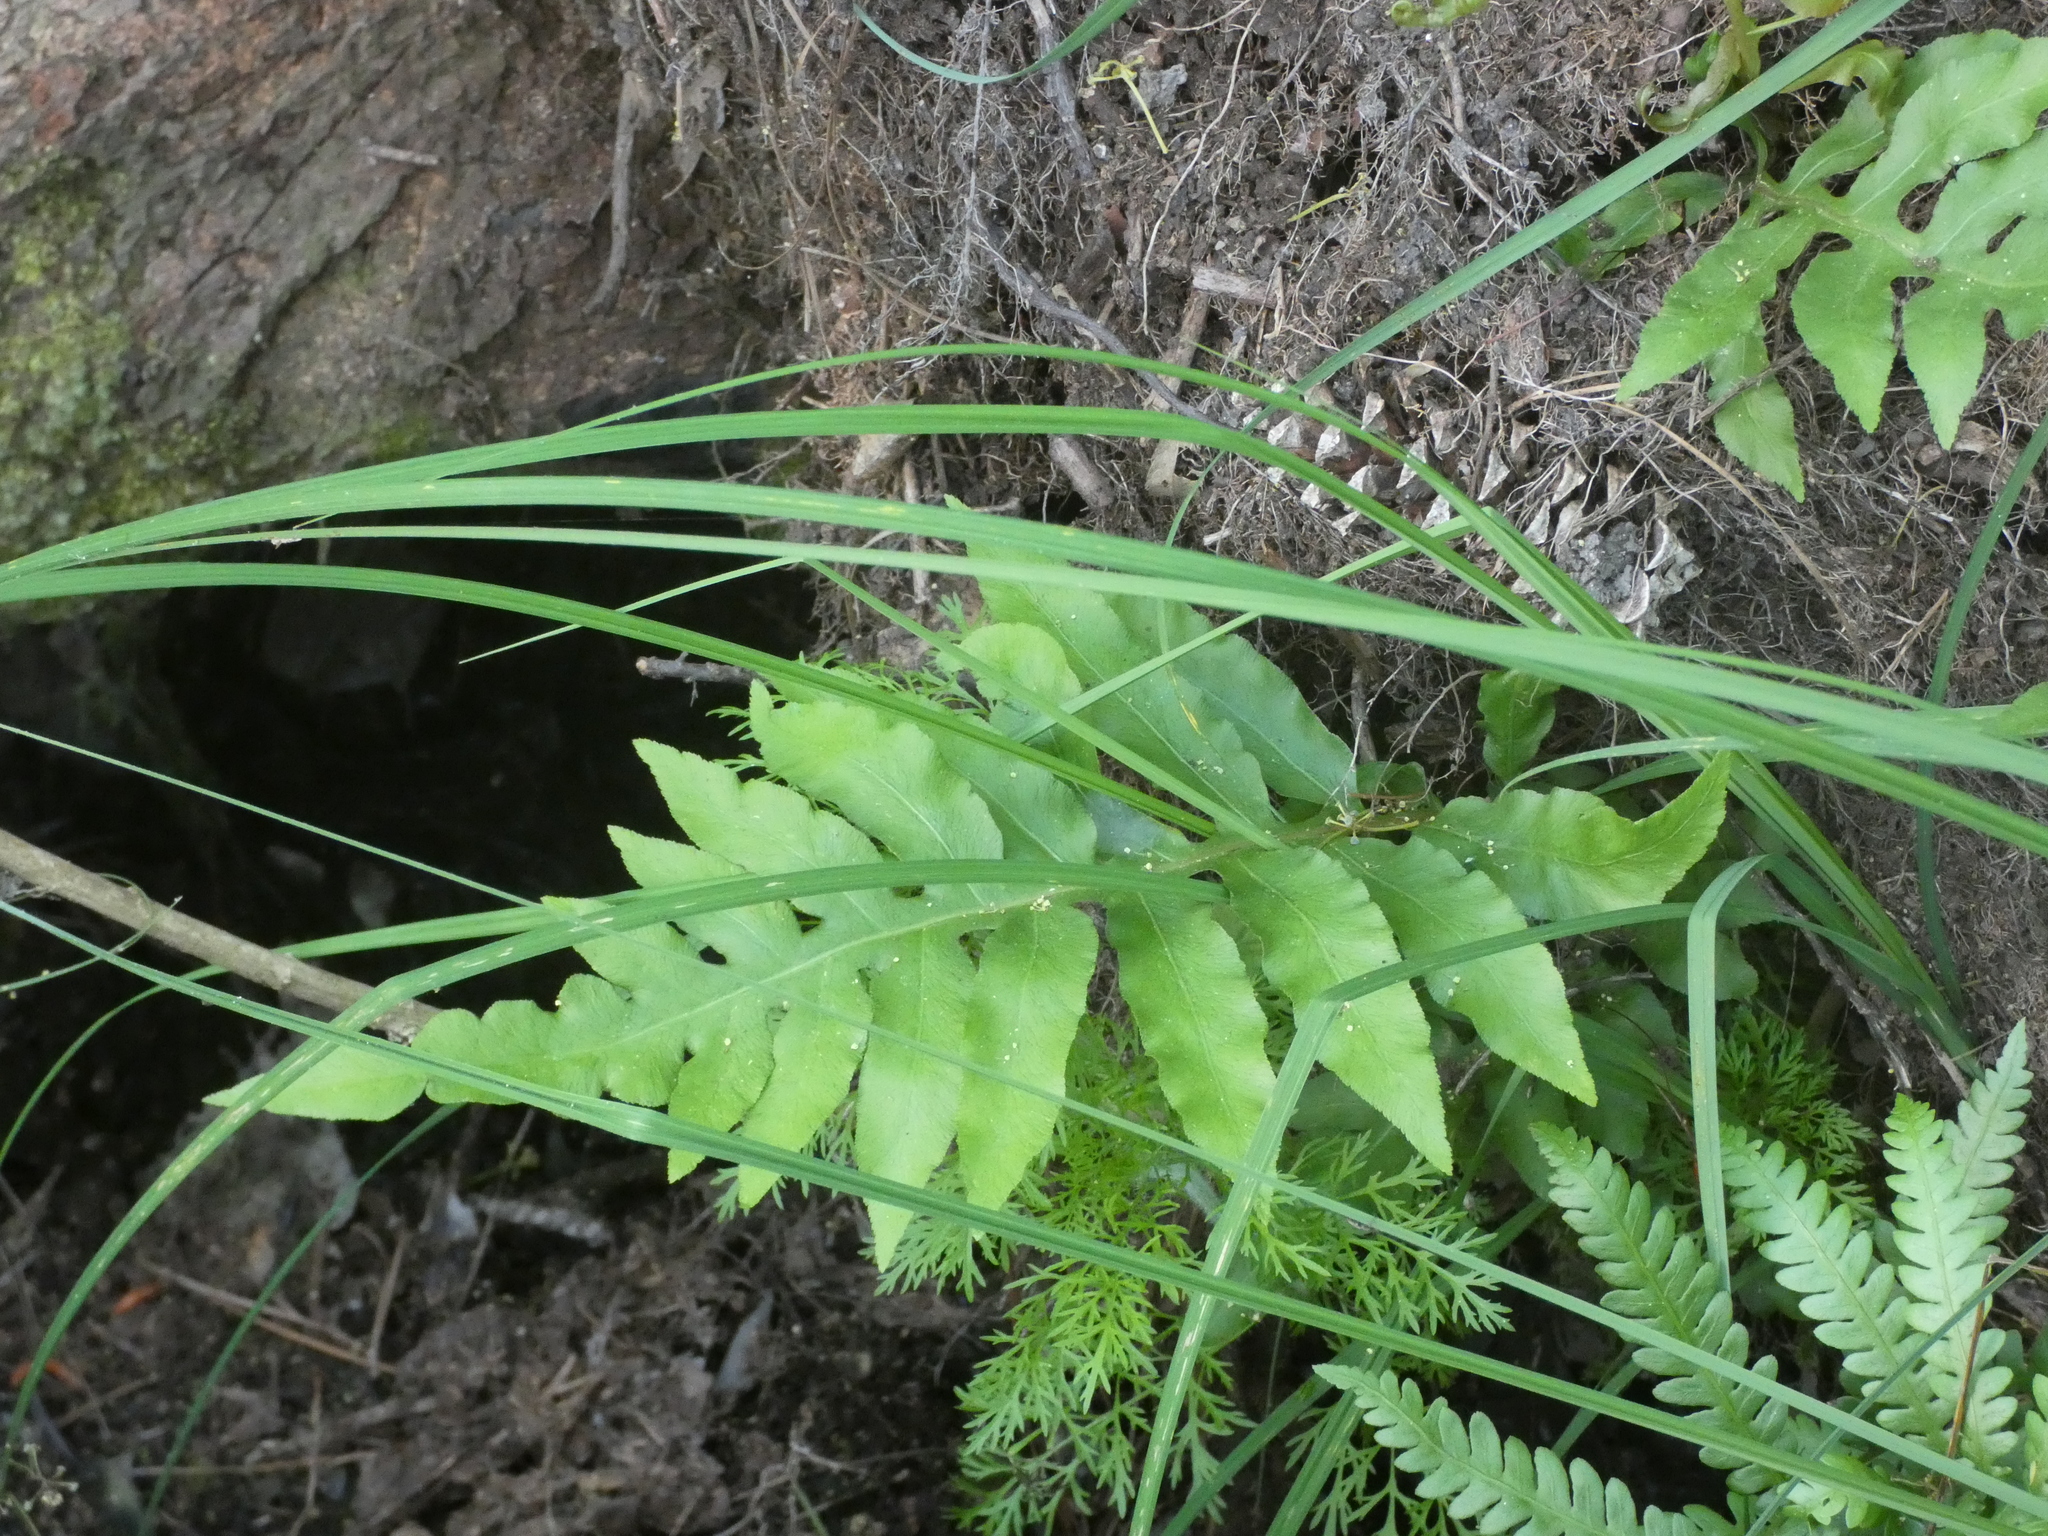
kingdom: Plantae
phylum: Tracheophyta
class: Polypodiopsida
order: Polypodiales
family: Blechnaceae
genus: Lorinseria
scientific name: Lorinseria areolata
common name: Dwarf chain fern
